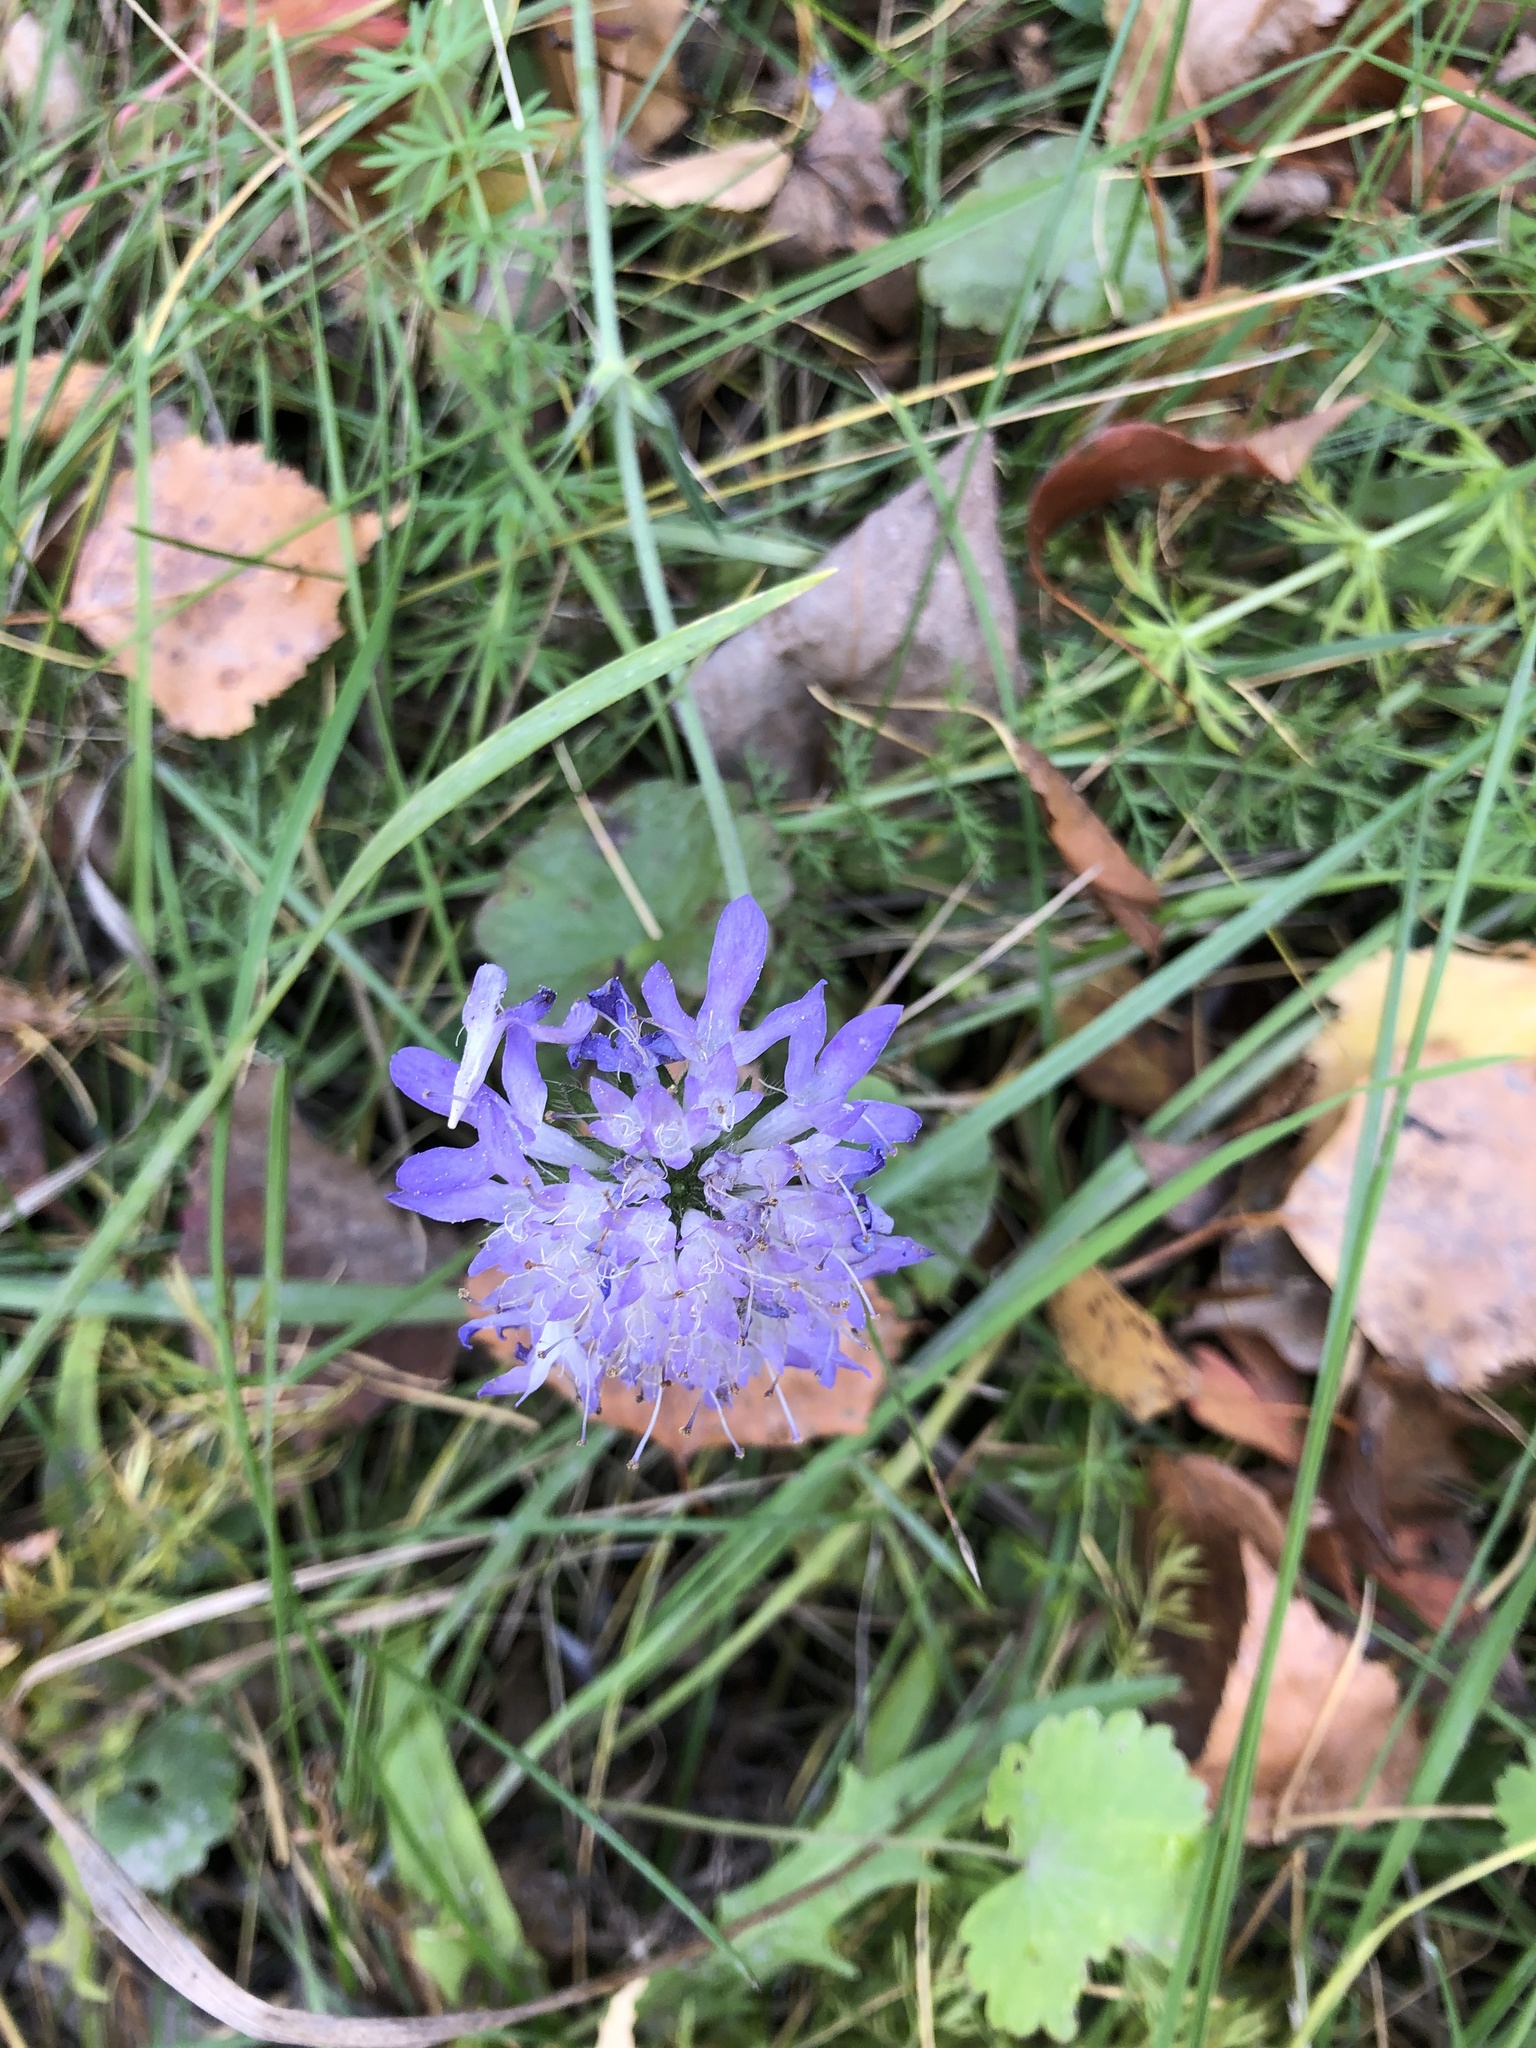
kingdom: Plantae
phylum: Tracheophyta
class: Magnoliopsida
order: Dipsacales
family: Caprifoliaceae
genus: Knautia
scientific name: Knautia arvensis
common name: Field scabiosa
